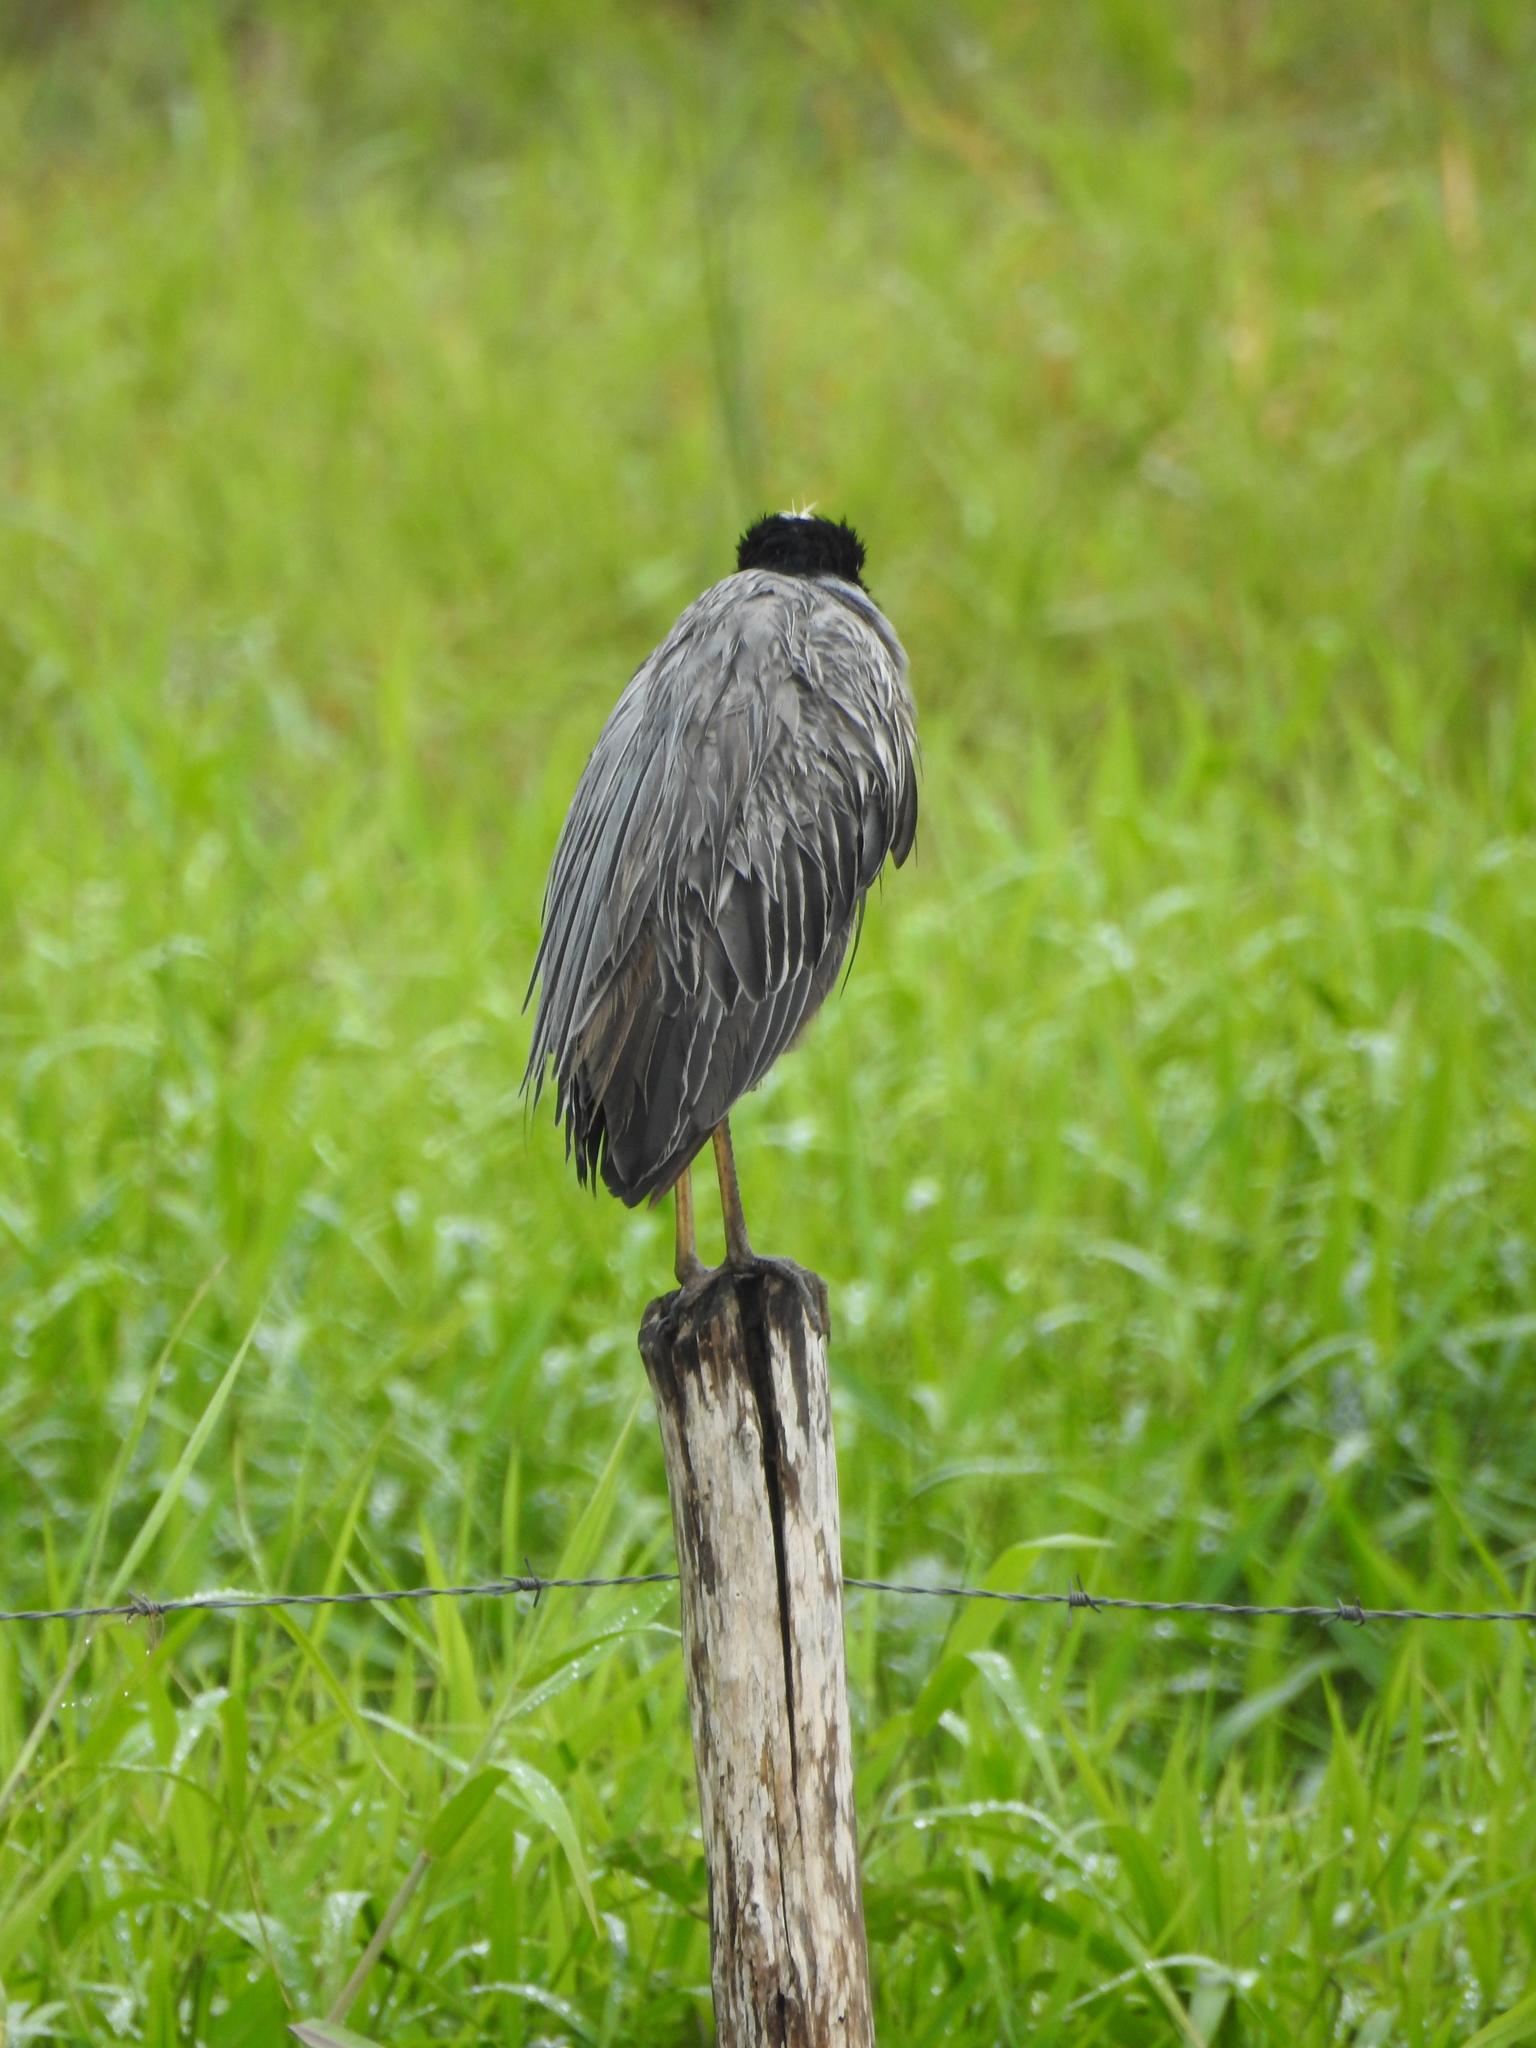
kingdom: Animalia
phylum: Chordata
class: Aves
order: Pelecaniformes
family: Ardeidae
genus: Nyctanassa
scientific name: Nyctanassa violacea
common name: Yellow-crowned night heron
